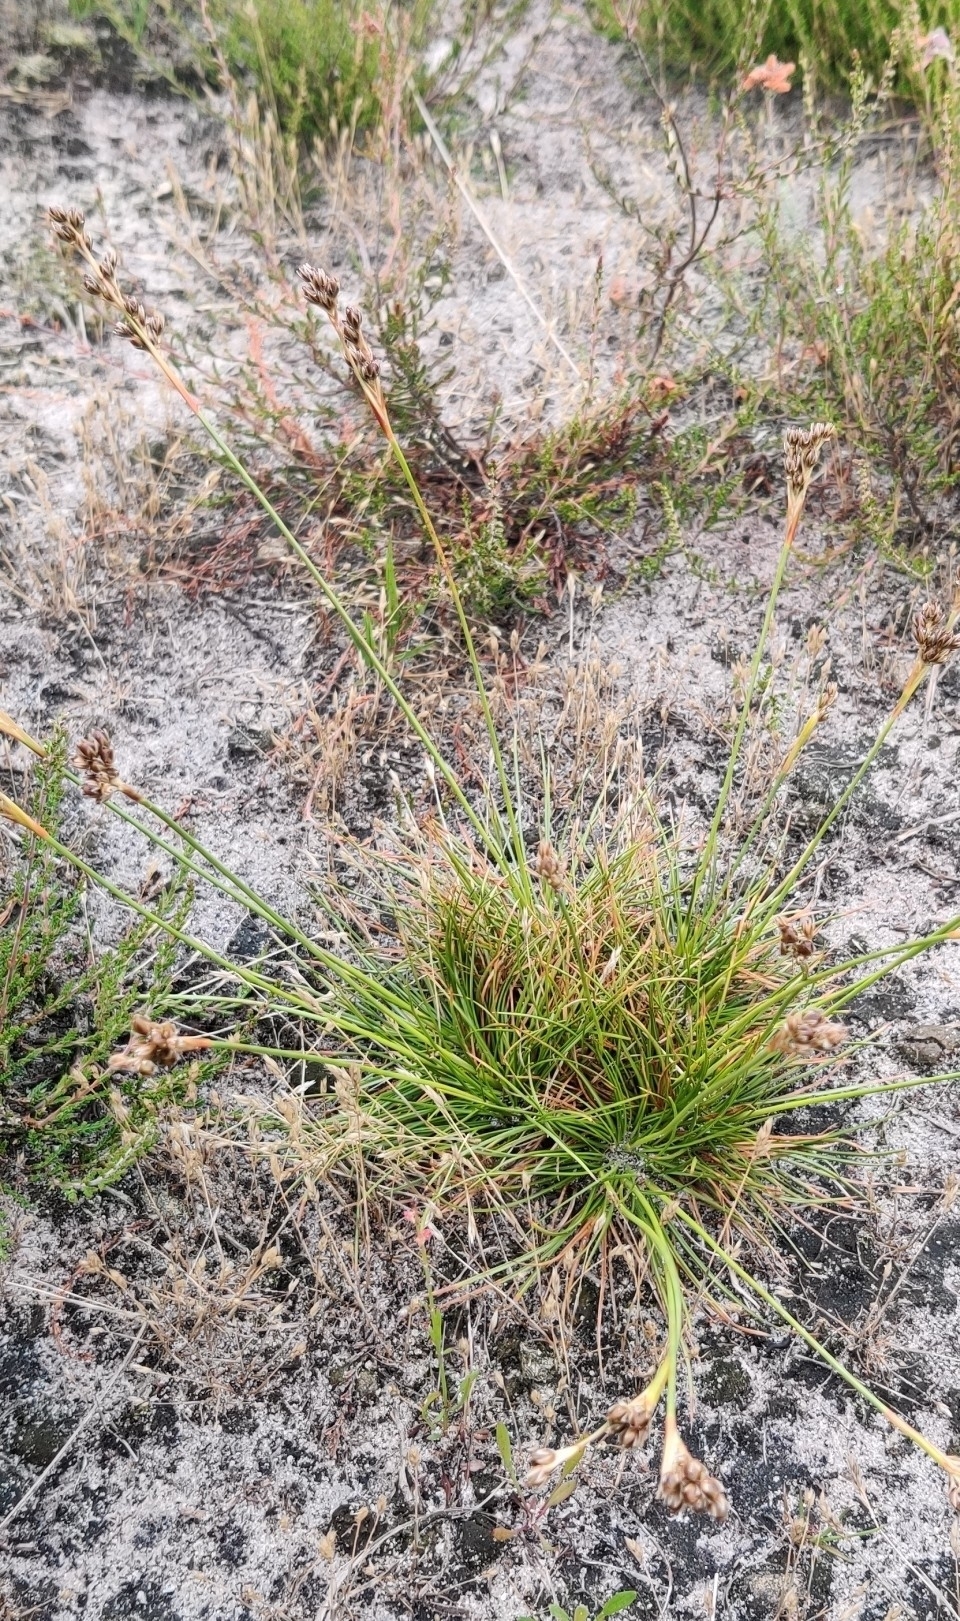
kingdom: Plantae
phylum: Tracheophyta
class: Liliopsida
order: Poales
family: Juncaceae
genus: Juncus
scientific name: Juncus squarrosus
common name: Heath rush
